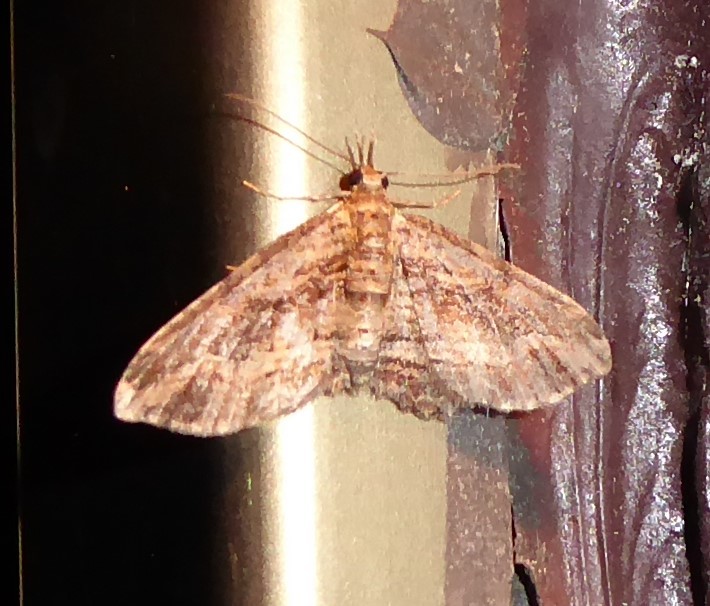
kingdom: Animalia
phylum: Arthropoda
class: Insecta
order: Lepidoptera
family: Geometridae
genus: Chloroclystis
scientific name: Chloroclystis filata
